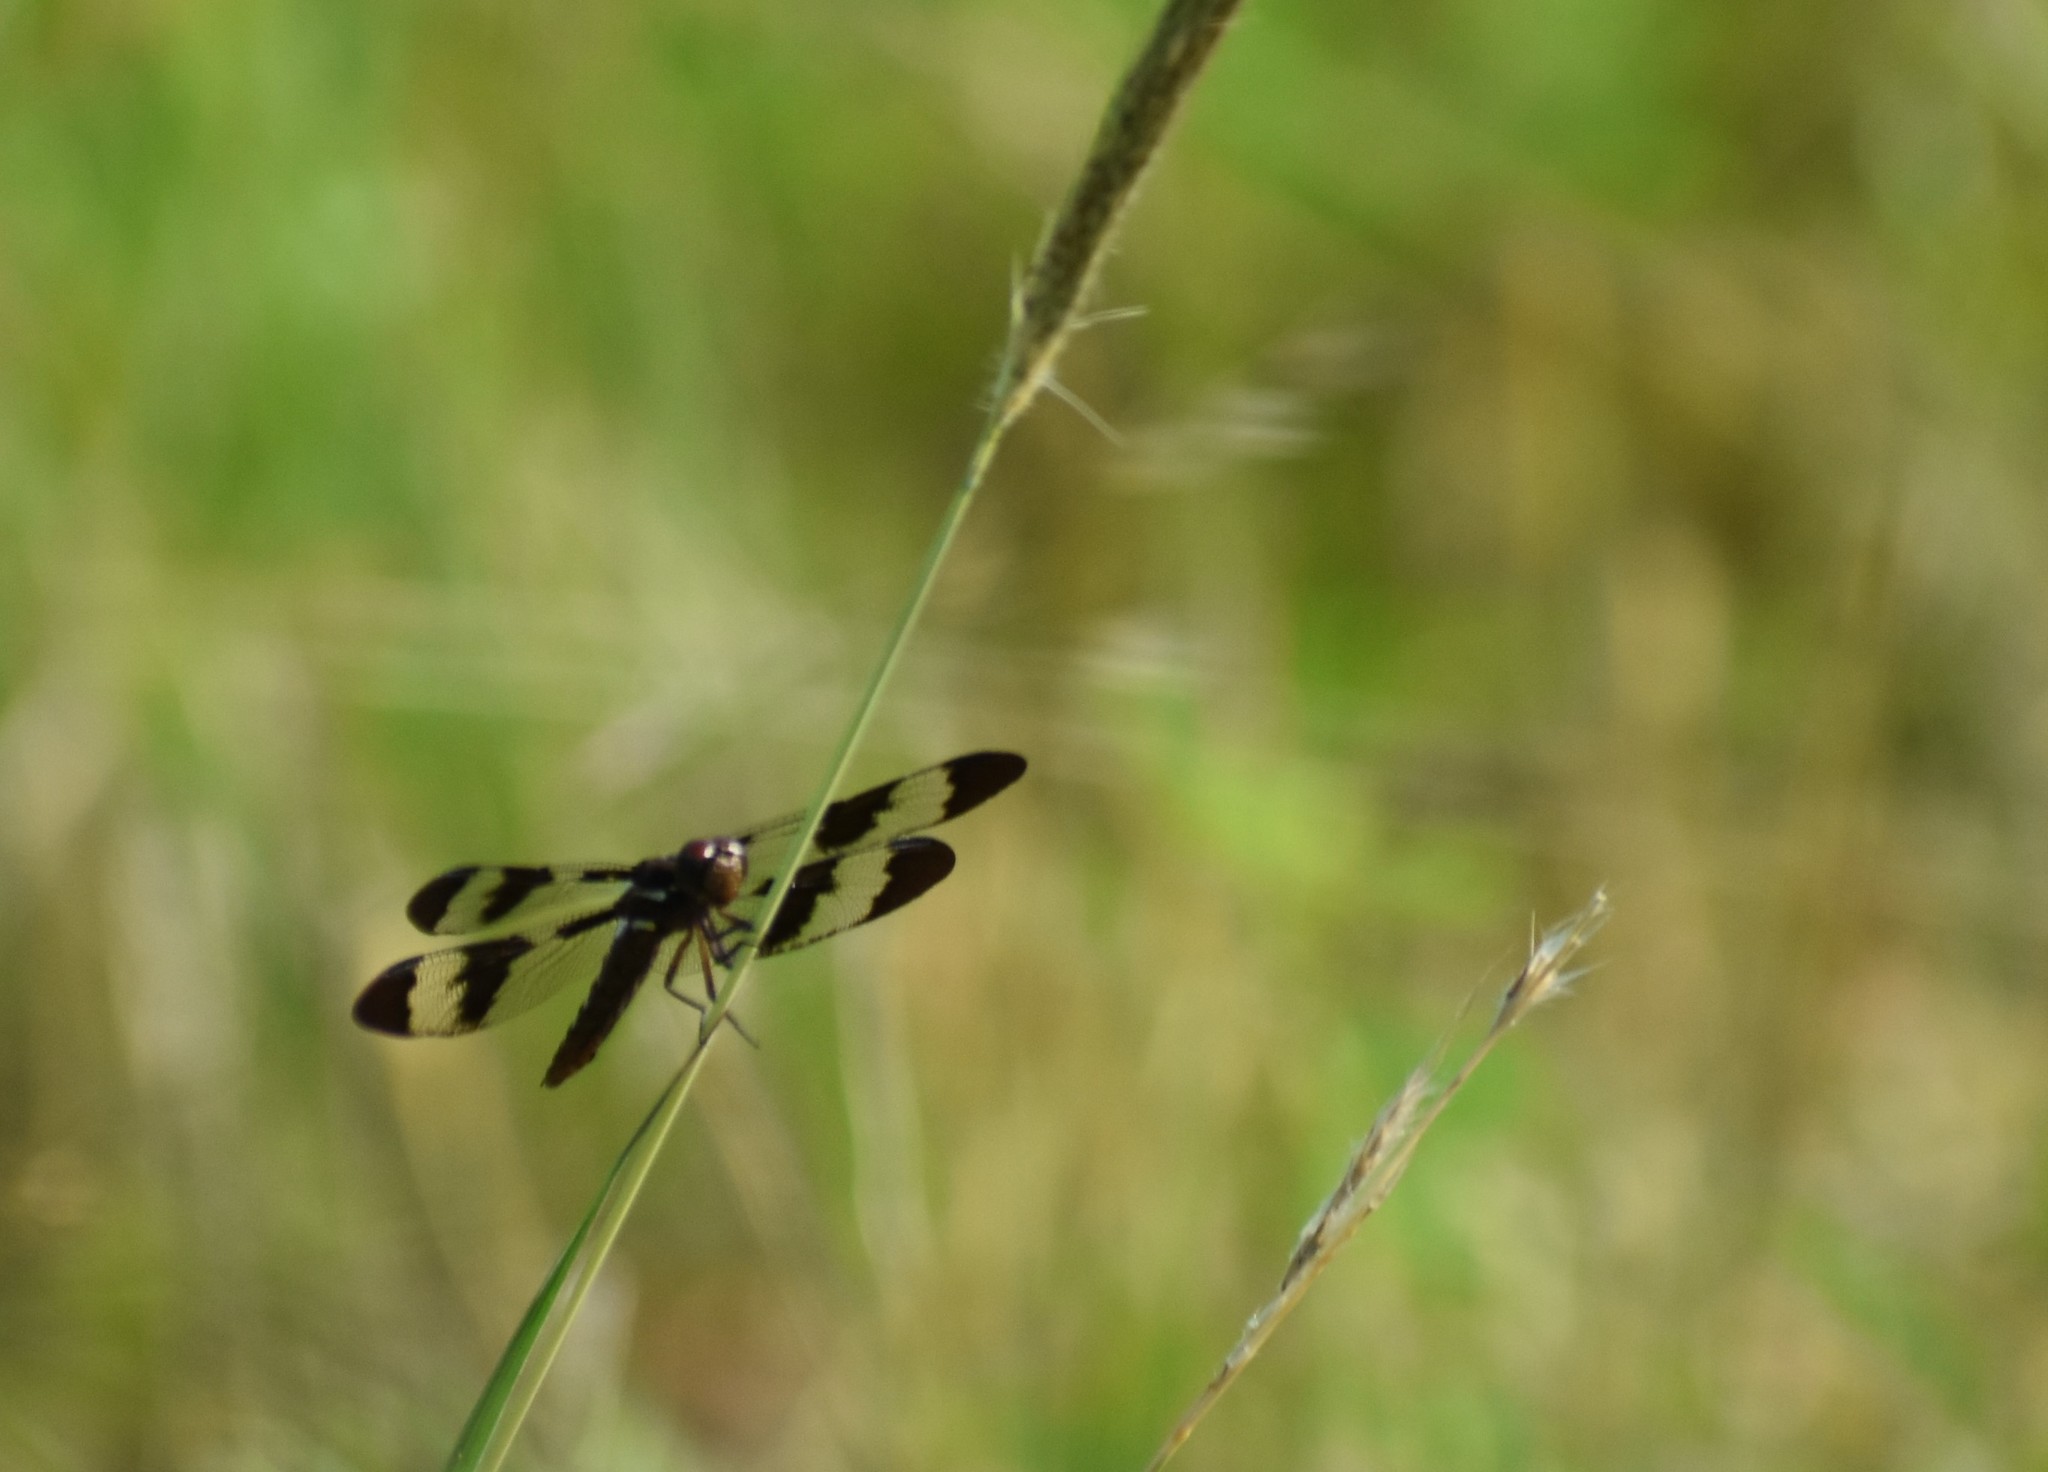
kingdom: Animalia
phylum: Arthropoda
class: Insecta
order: Odonata
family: Libellulidae
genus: Plathemis
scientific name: Plathemis lydia
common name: Common whitetail
